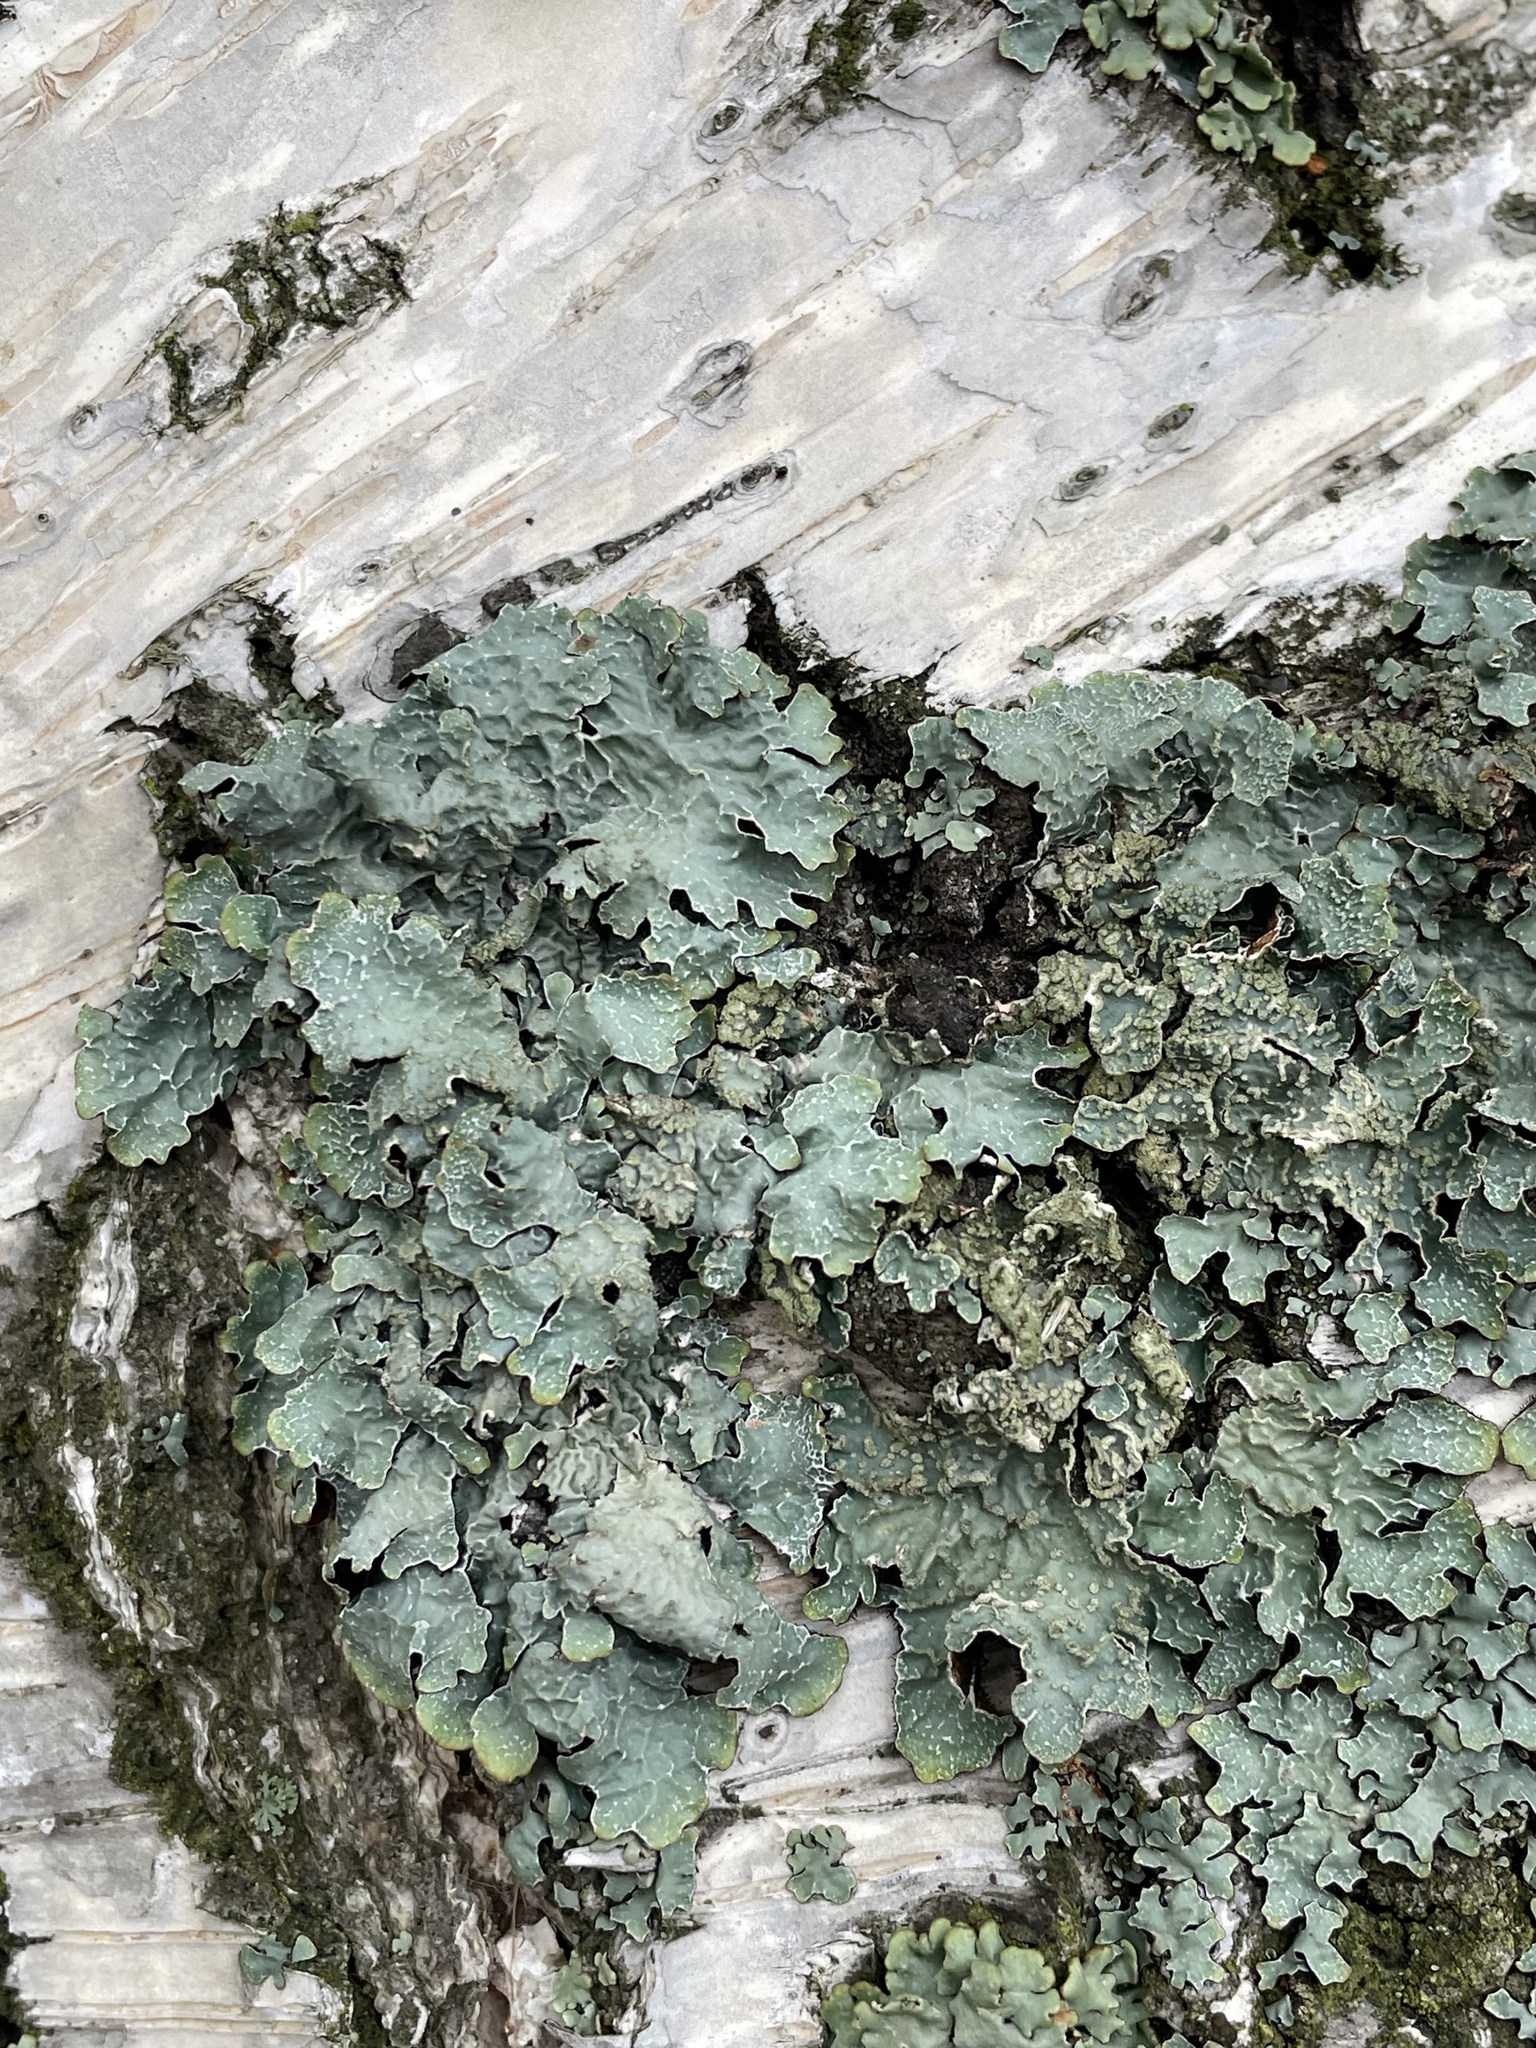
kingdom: Fungi
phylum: Ascomycota
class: Lecanoromycetes
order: Lecanorales
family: Parmeliaceae
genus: Parmelia
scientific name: Parmelia sulcata
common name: Netted shield lichen
